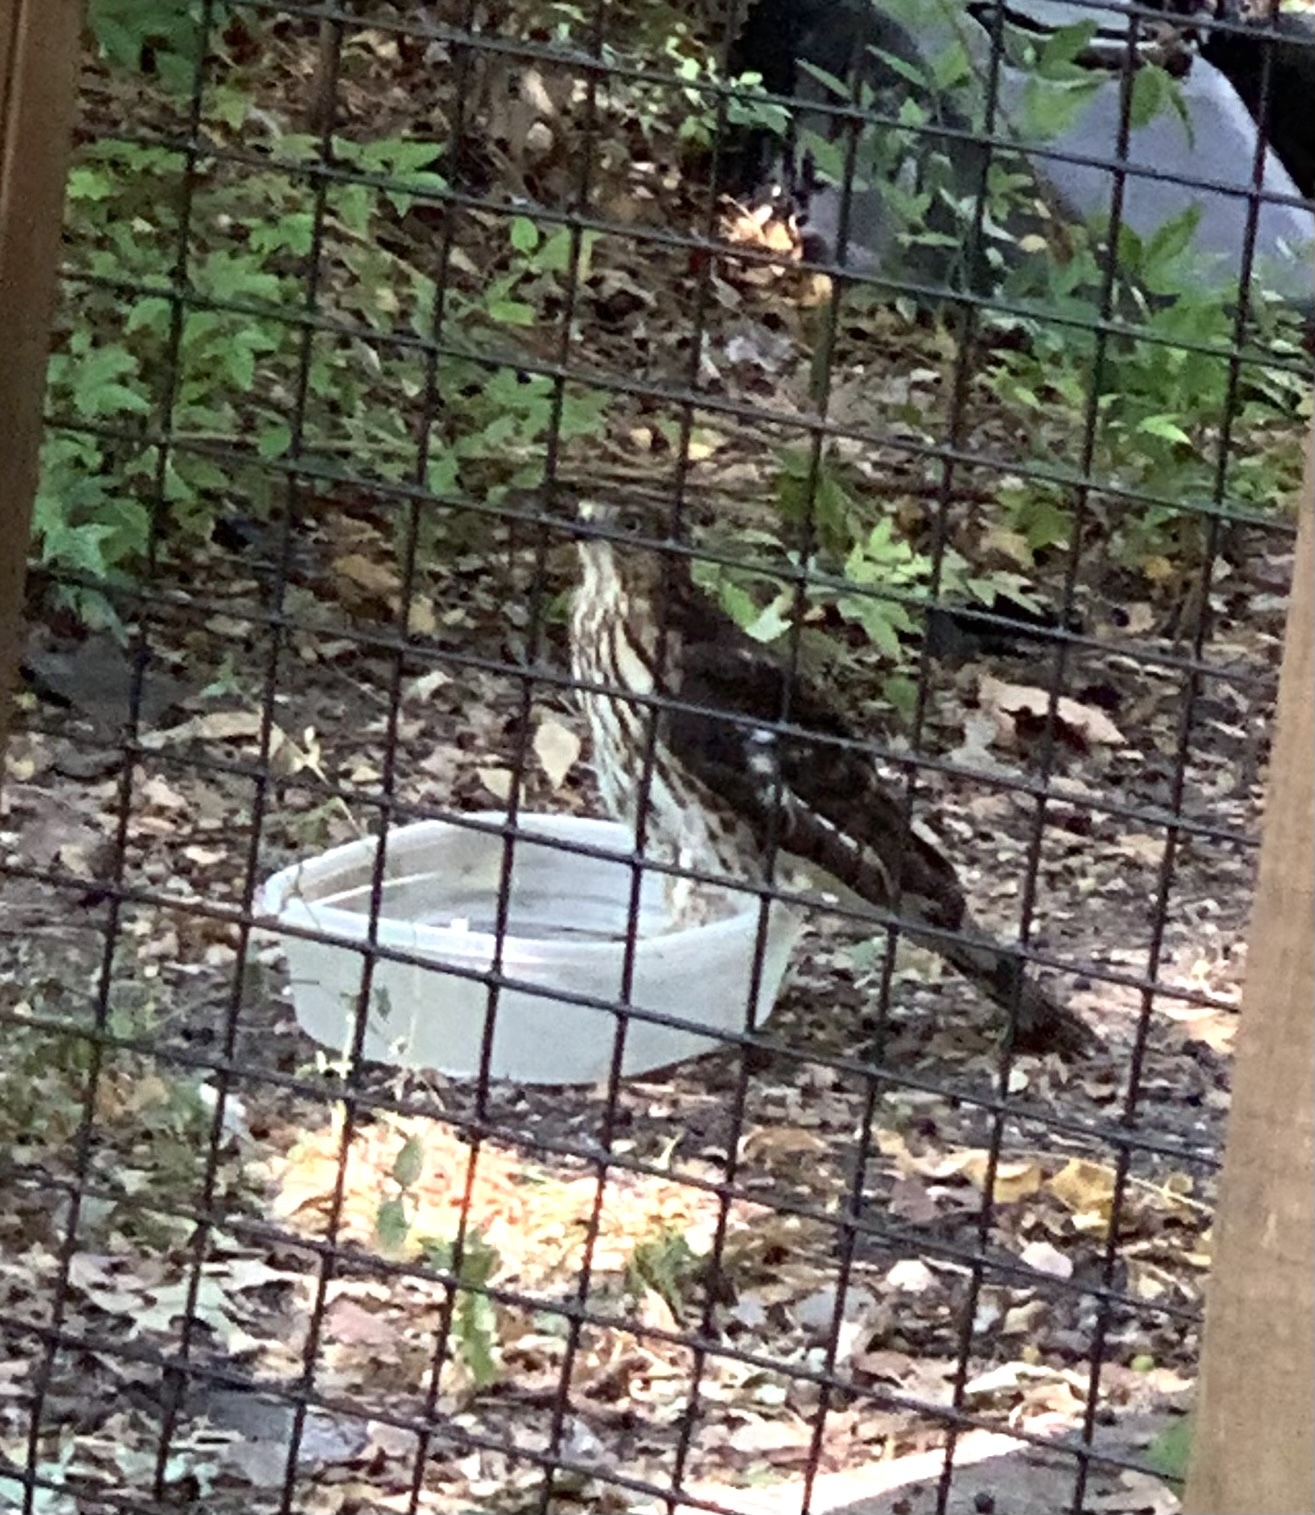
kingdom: Animalia
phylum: Chordata
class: Aves
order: Accipitriformes
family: Accipitridae
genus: Accipiter
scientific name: Accipiter cooperii
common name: Cooper's hawk
